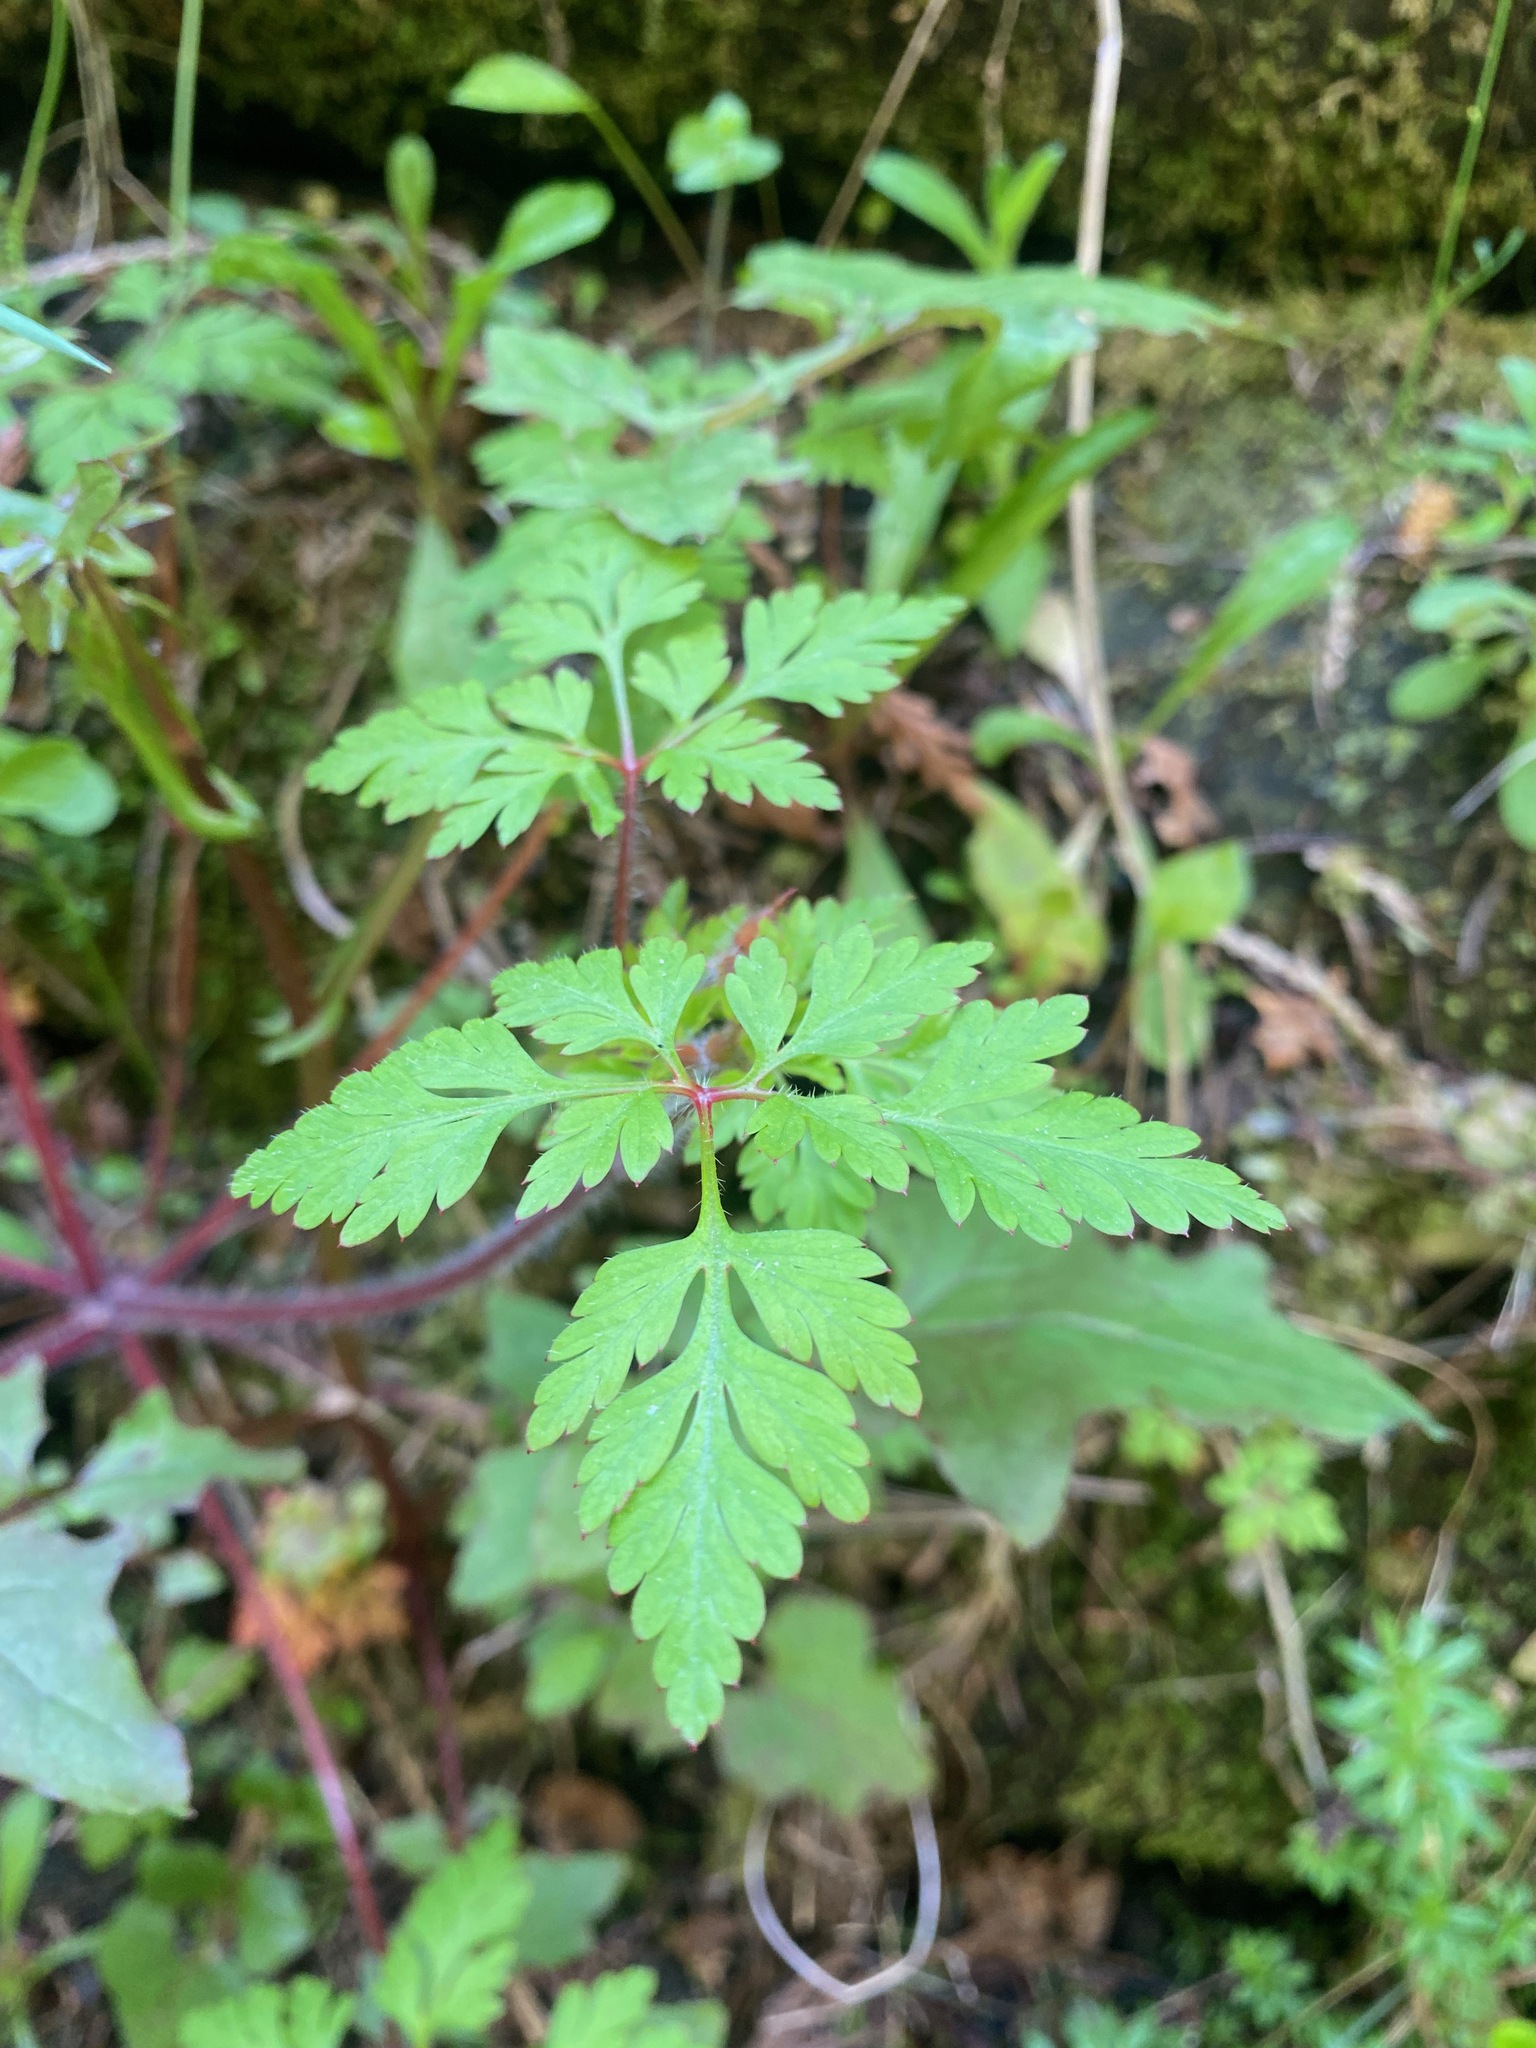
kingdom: Plantae
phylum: Tracheophyta
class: Magnoliopsida
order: Geraniales
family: Geraniaceae
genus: Geranium
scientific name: Geranium robertianum
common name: Herb-robert
